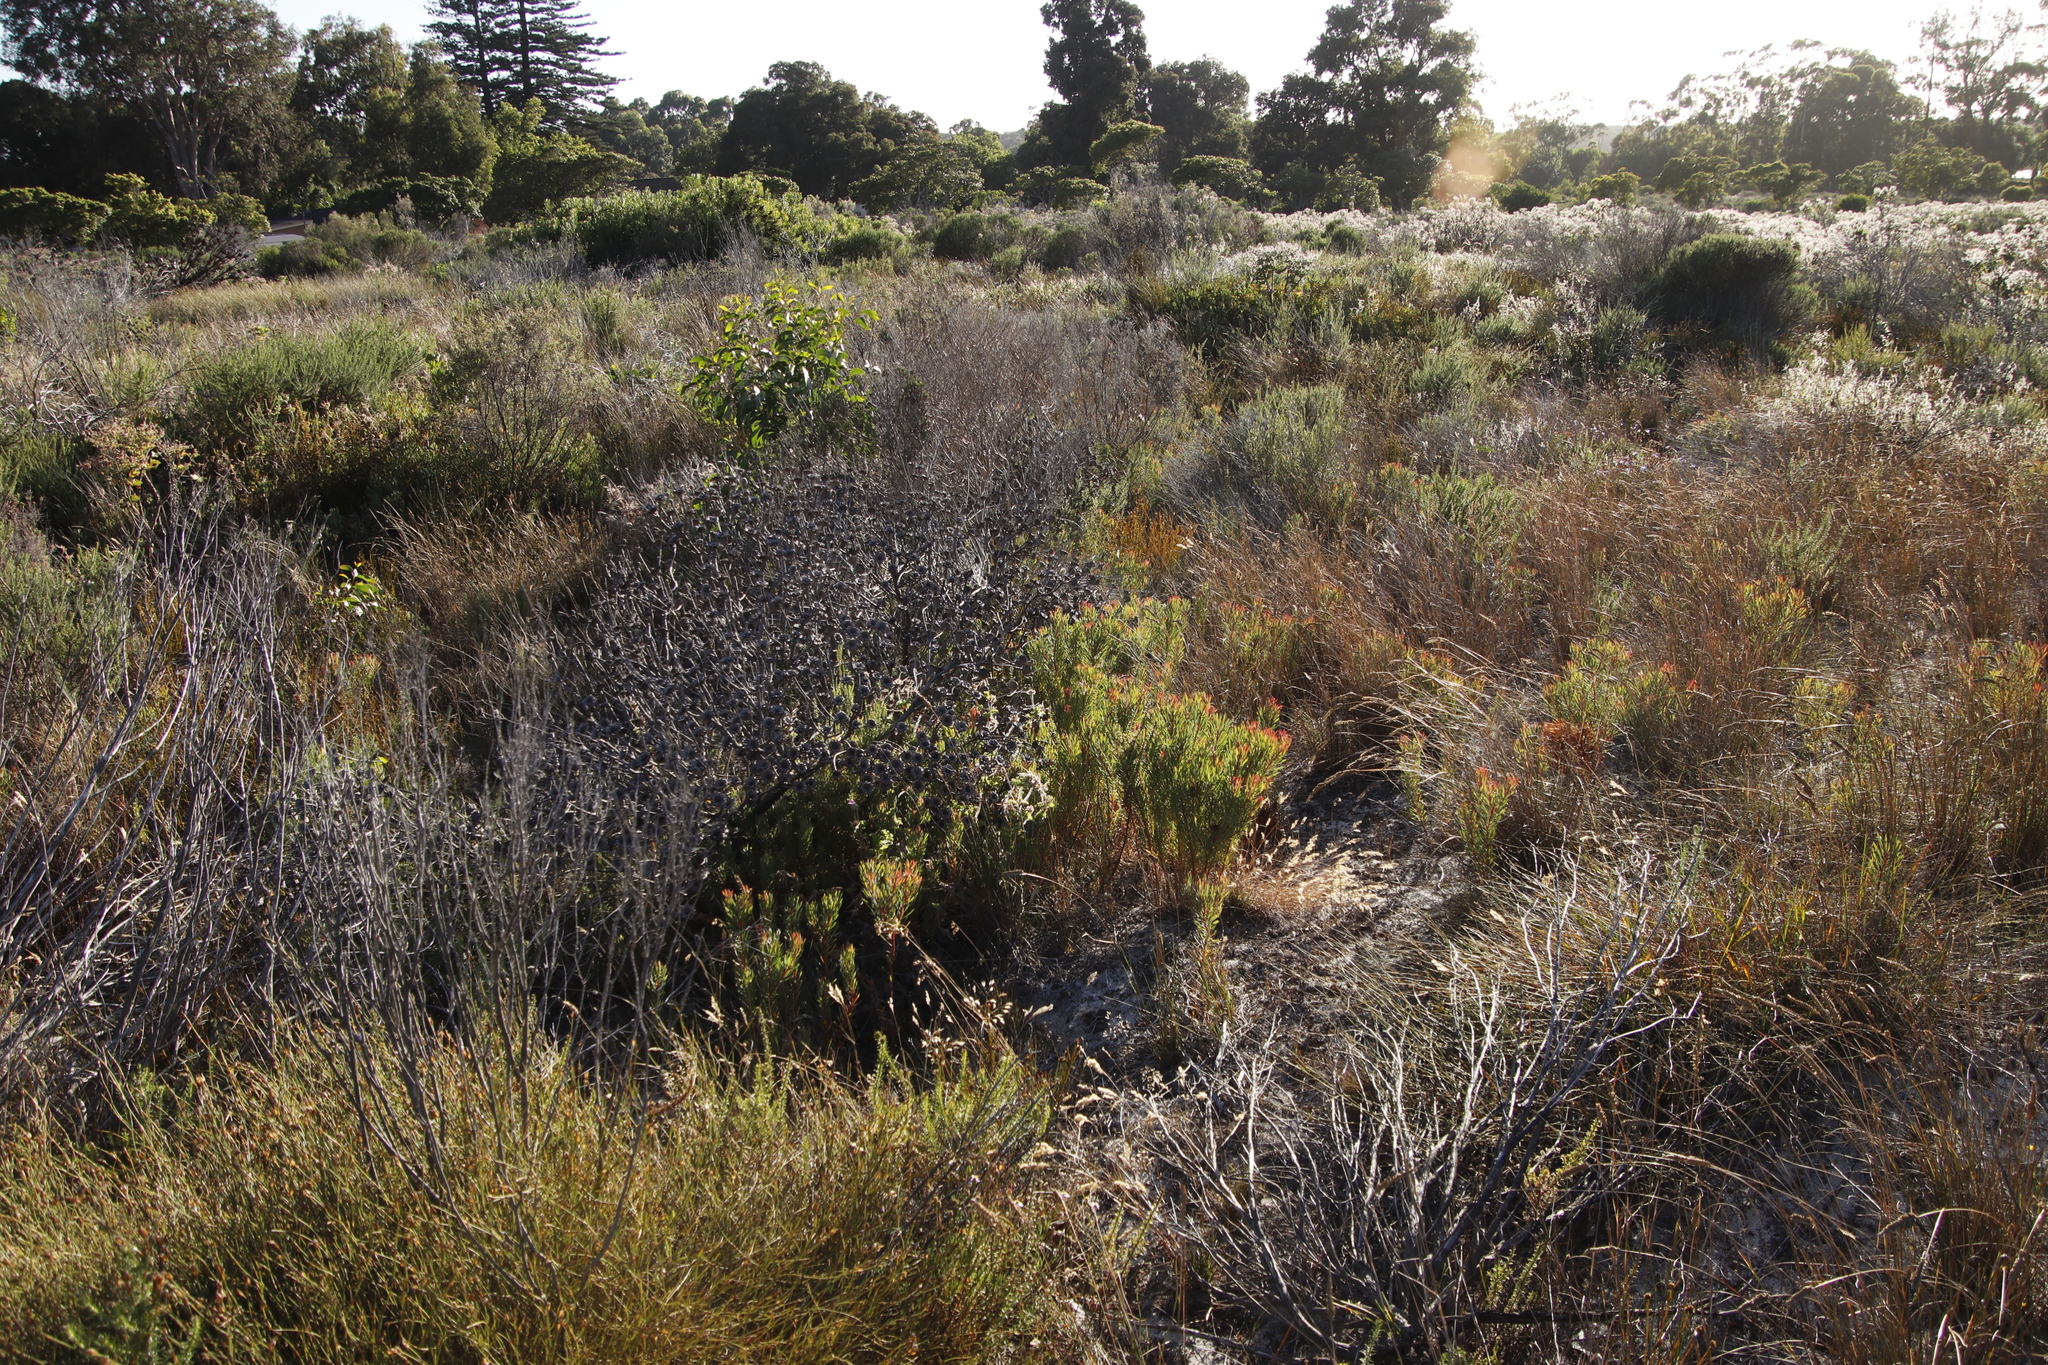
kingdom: Plantae
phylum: Tracheophyta
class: Magnoliopsida
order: Proteales
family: Proteaceae
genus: Protea
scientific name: Protea scolymocephala
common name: Thistle sugarbush
